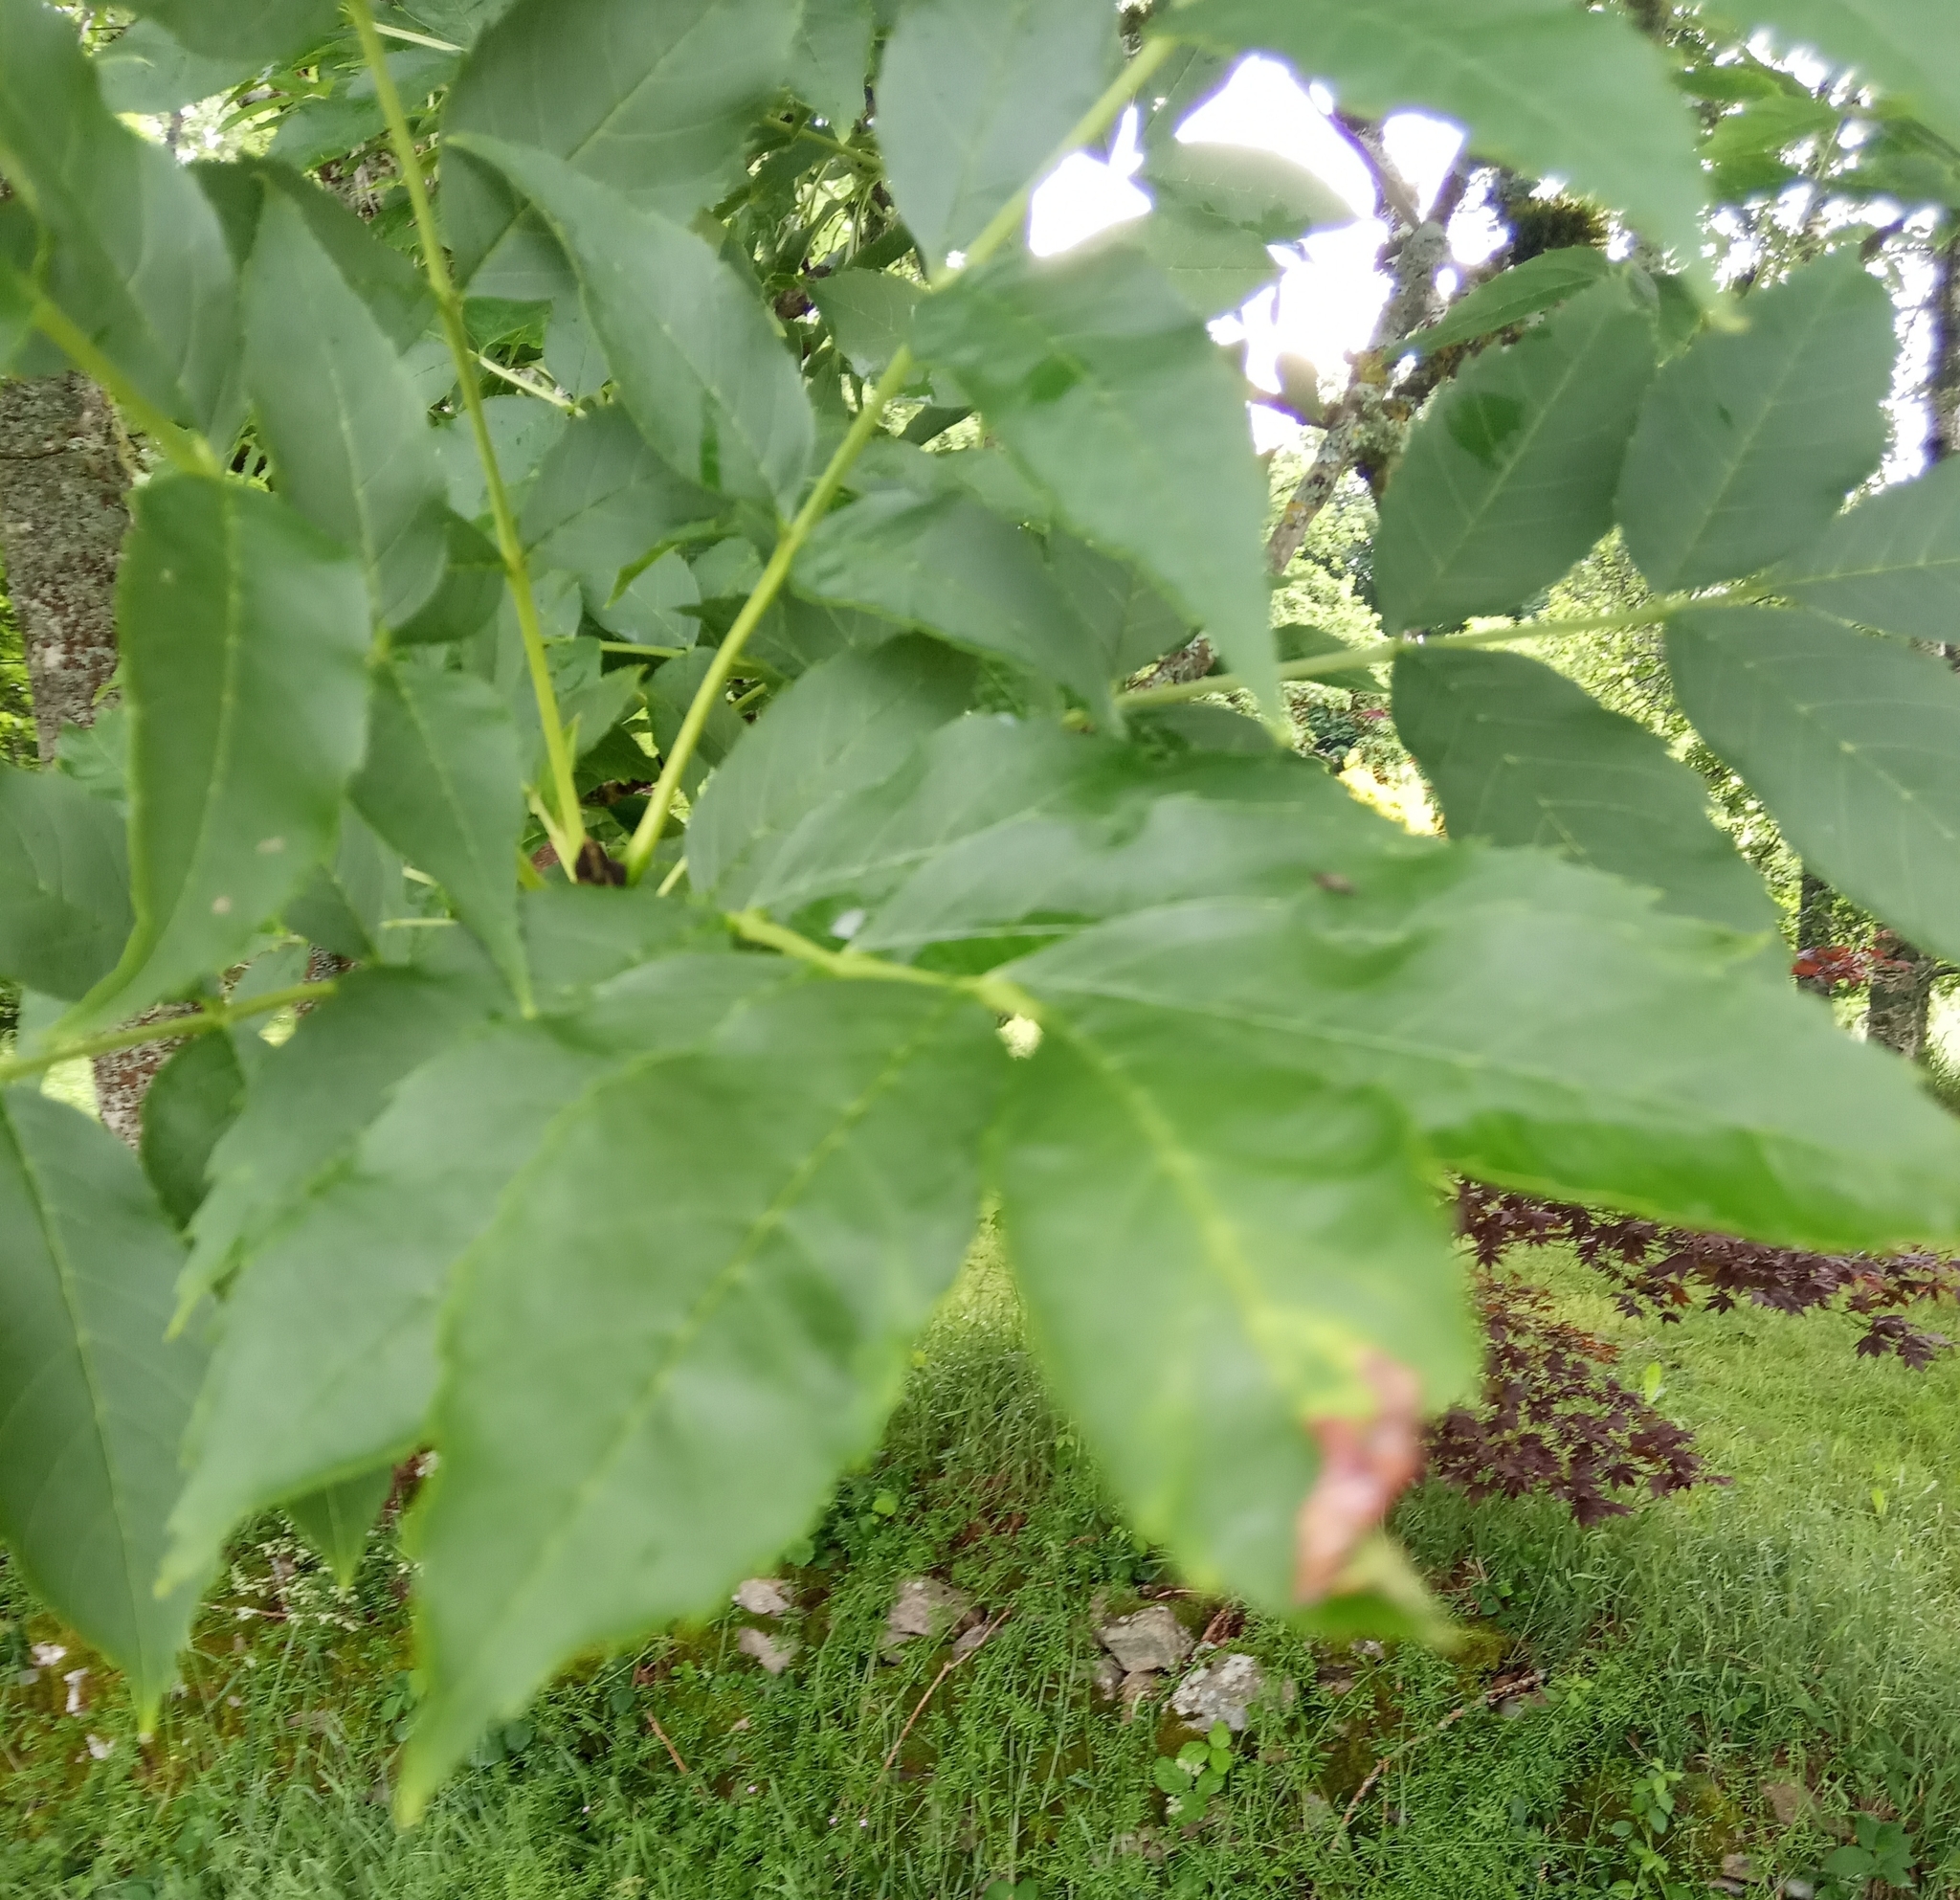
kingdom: Plantae
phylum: Tracheophyta
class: Magnoliopsida
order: Lamiales
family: Oleaceae
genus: Fraxinus
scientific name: Fraxinus excelsior
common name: European ash
